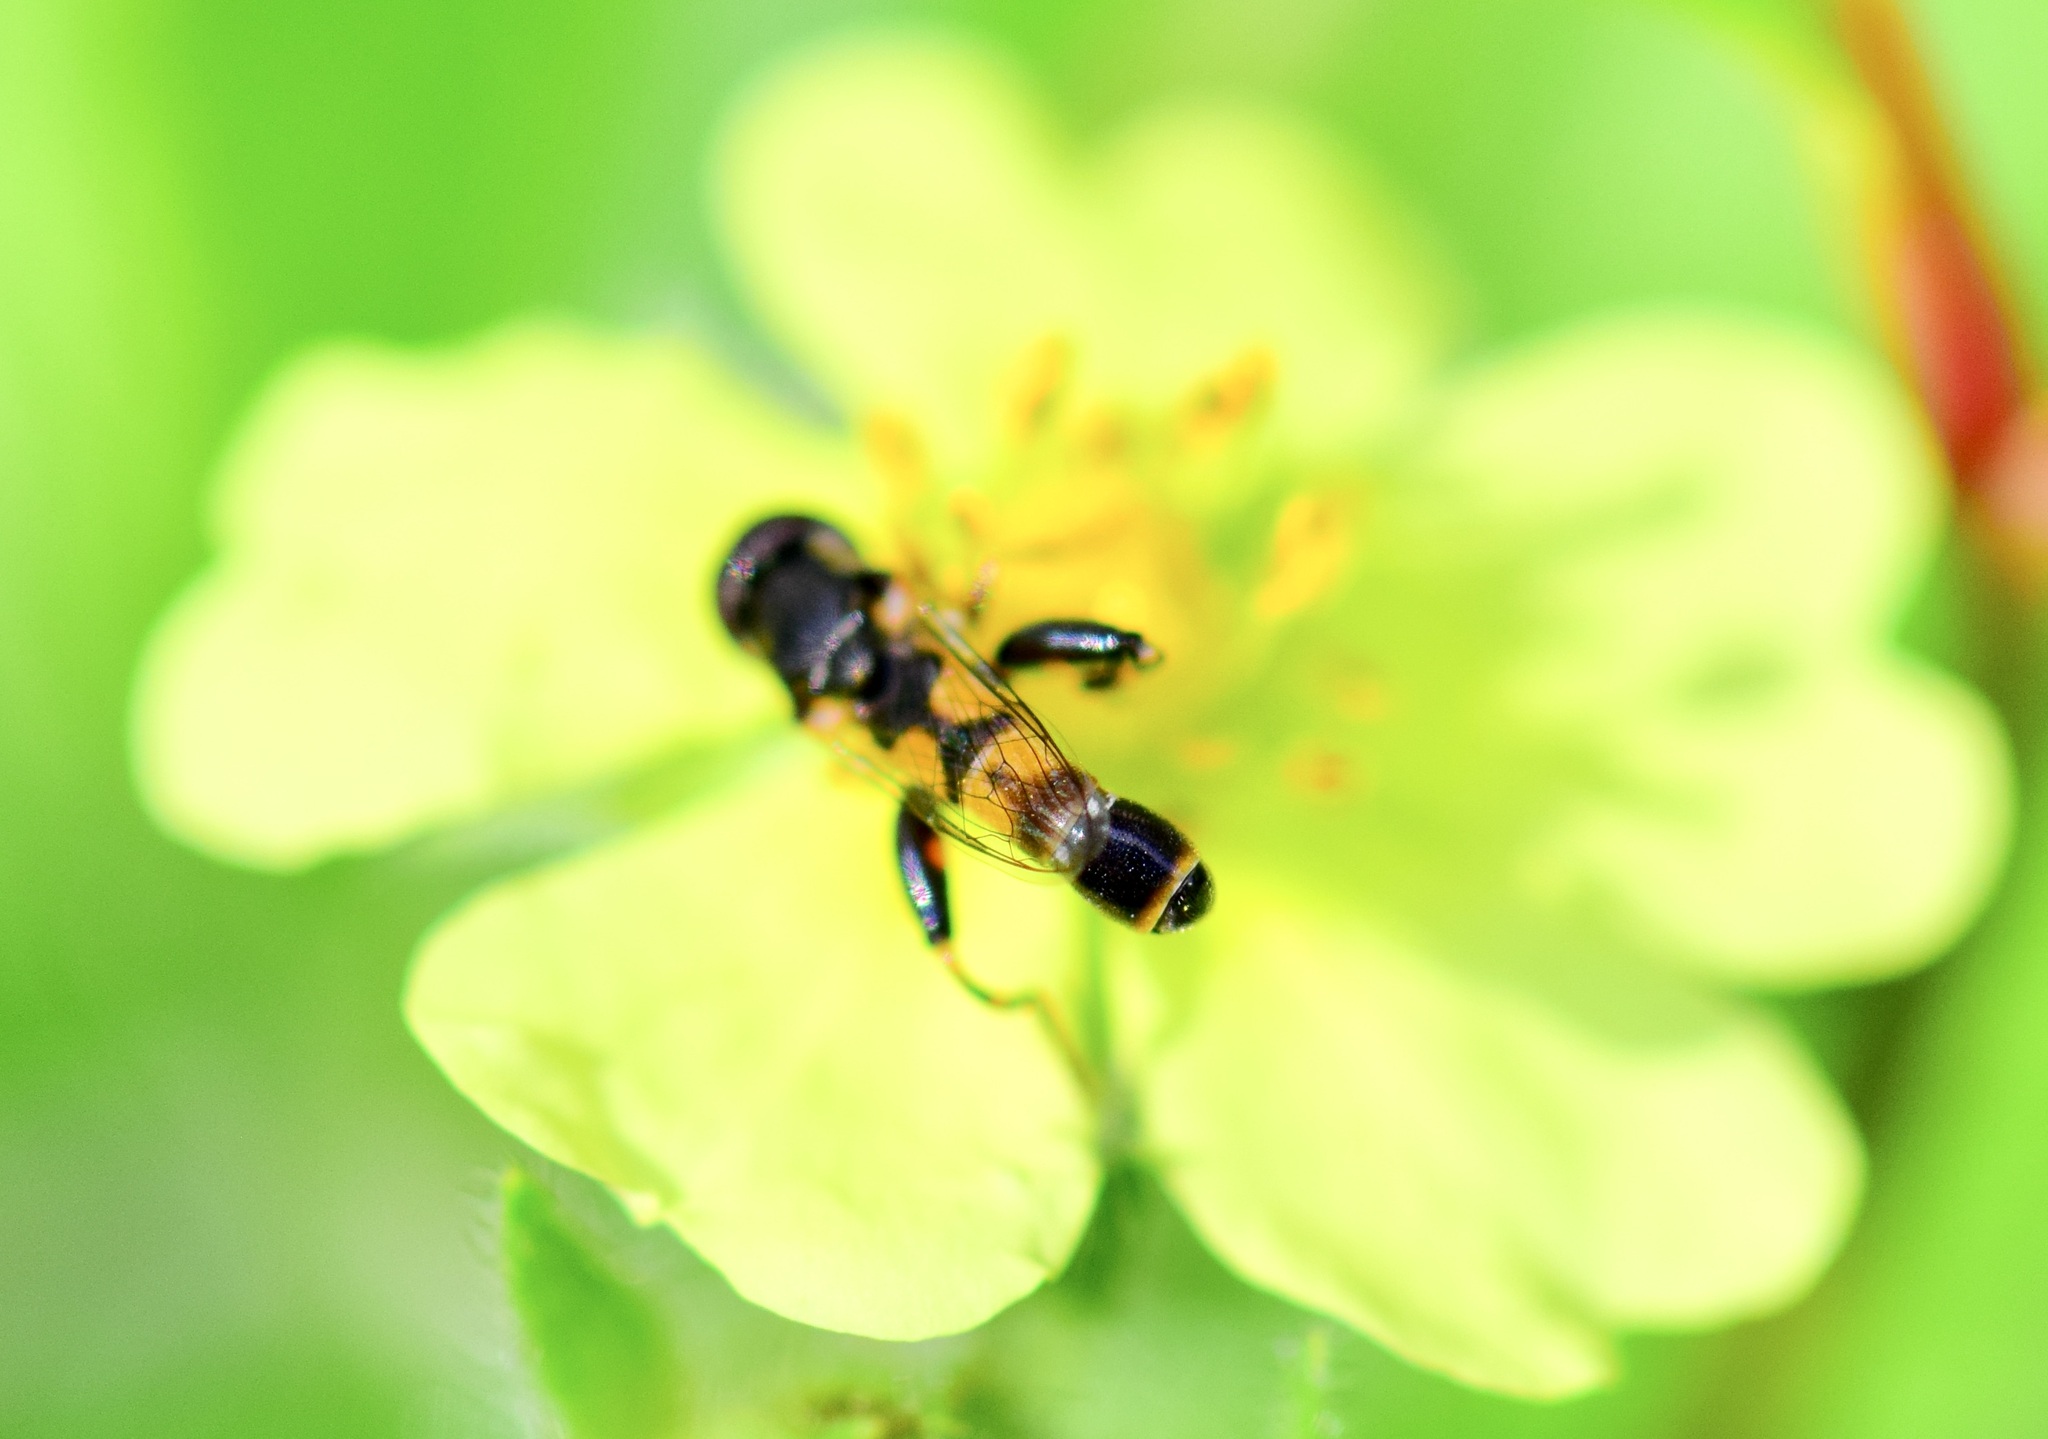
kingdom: Animalia
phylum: Arthropoda
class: Insecta
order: Diptera
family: Syrphidae
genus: Syritta
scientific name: Syritta pipiens
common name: Hover fly
